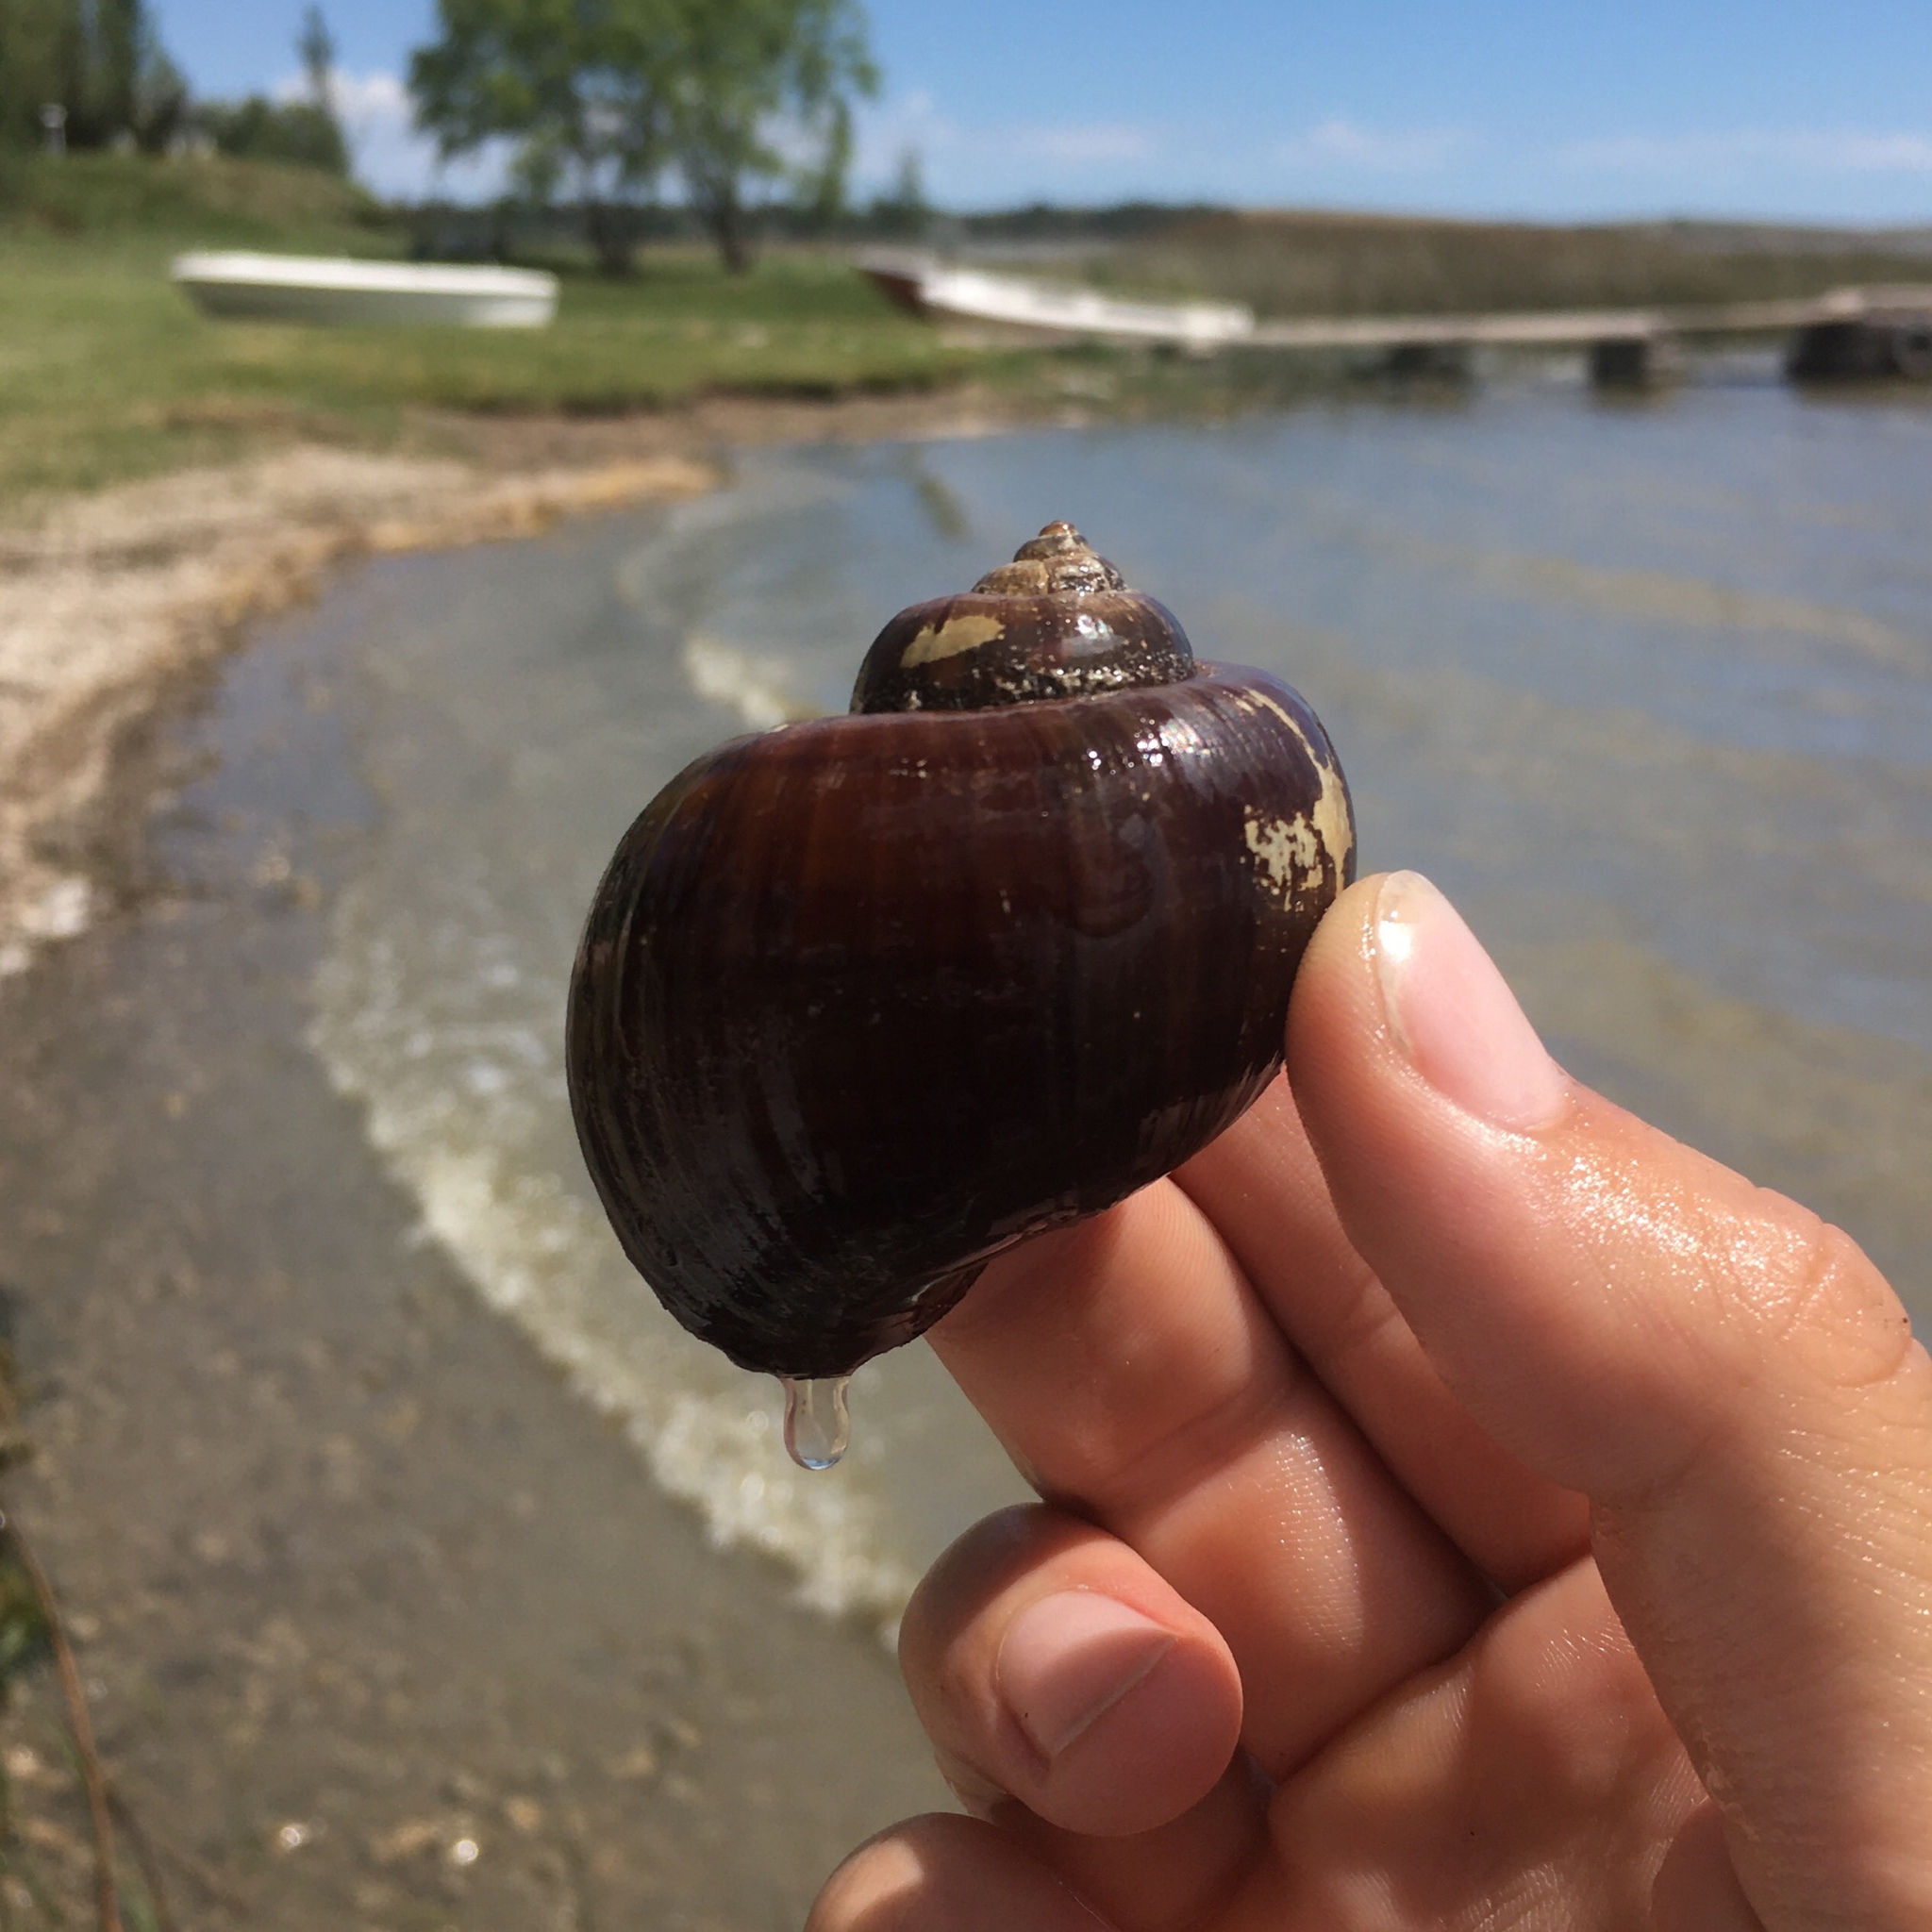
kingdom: Animalia
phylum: Mollusca
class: Gastropoda
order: Architaenioglossa
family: Ampullariidae
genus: Pomacea
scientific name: Pomacea canaliculata
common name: Channeled applesnail
